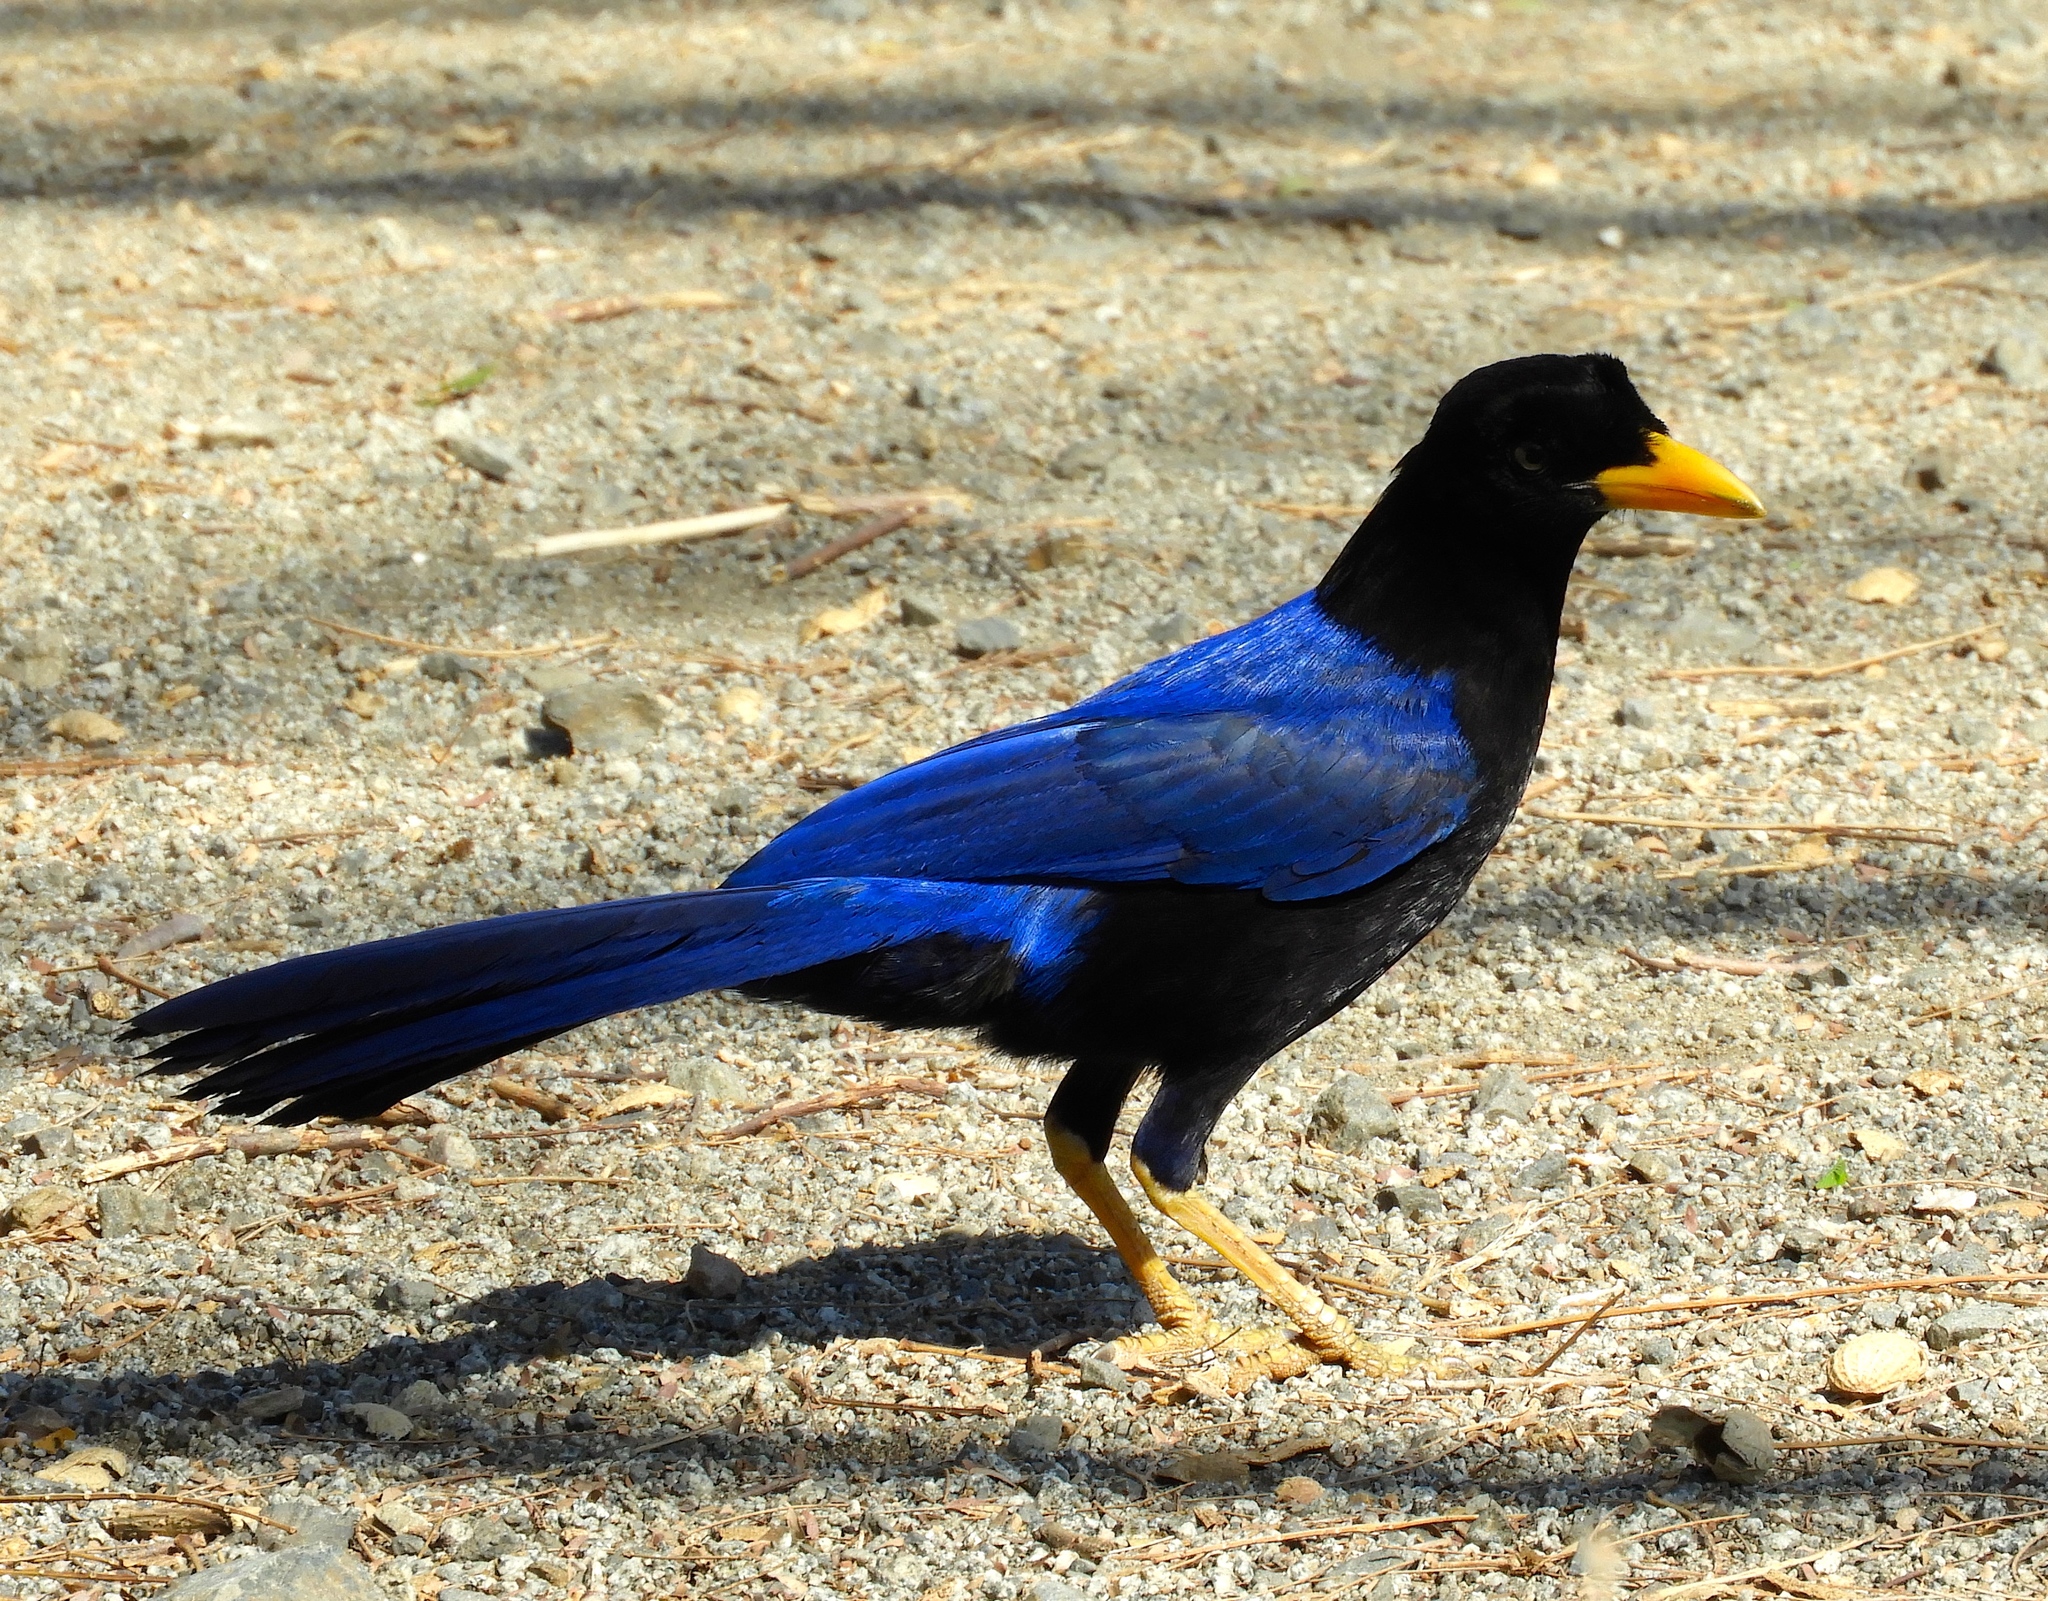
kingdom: Animalia
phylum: Chordata
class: Aves
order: Passeriformes
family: Corvidae
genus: Cyanocorax
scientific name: Cyanocorax beecheii
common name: Purplish-backed jay
